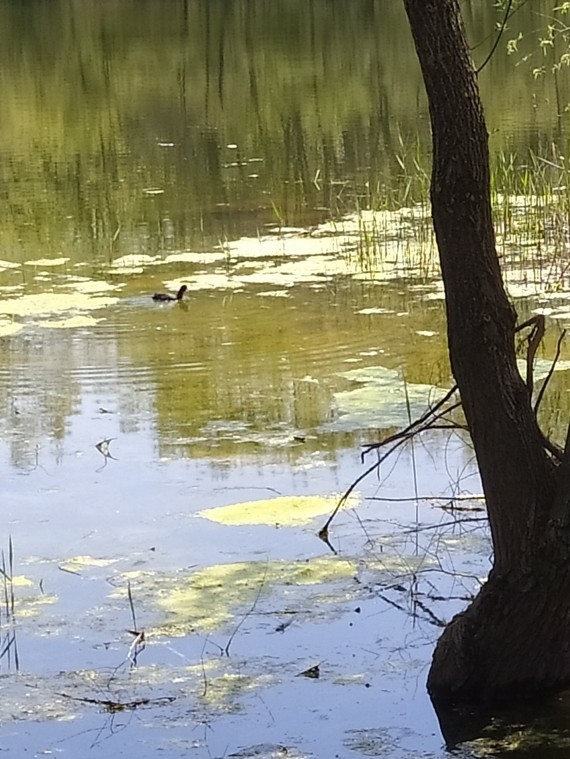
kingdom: Animalia
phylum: Chordata
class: Aves
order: Gruiformes
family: Rallidae
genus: Fulica
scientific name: Fulica atra
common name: Eurasian coot
